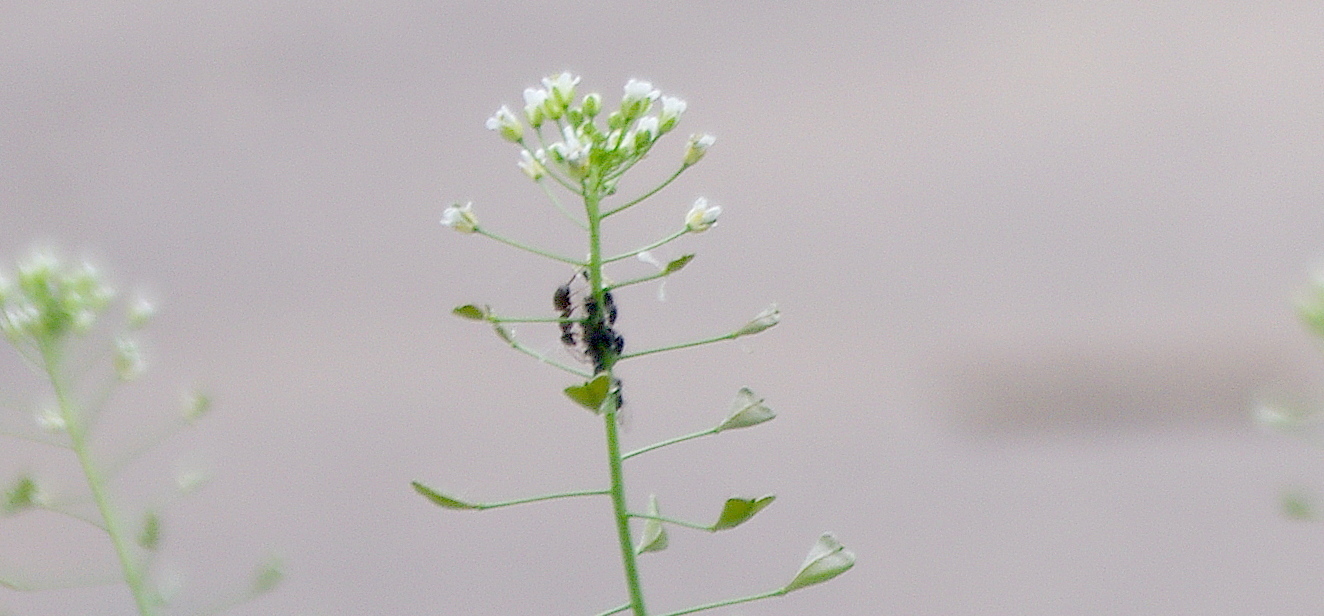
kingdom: Plantae
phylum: Tracheophyta
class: Magnoliopsida
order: Brassicales
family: Brassicaceae
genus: Capsella
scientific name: Capsella bursa-pastoris
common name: Shepherd's purse
